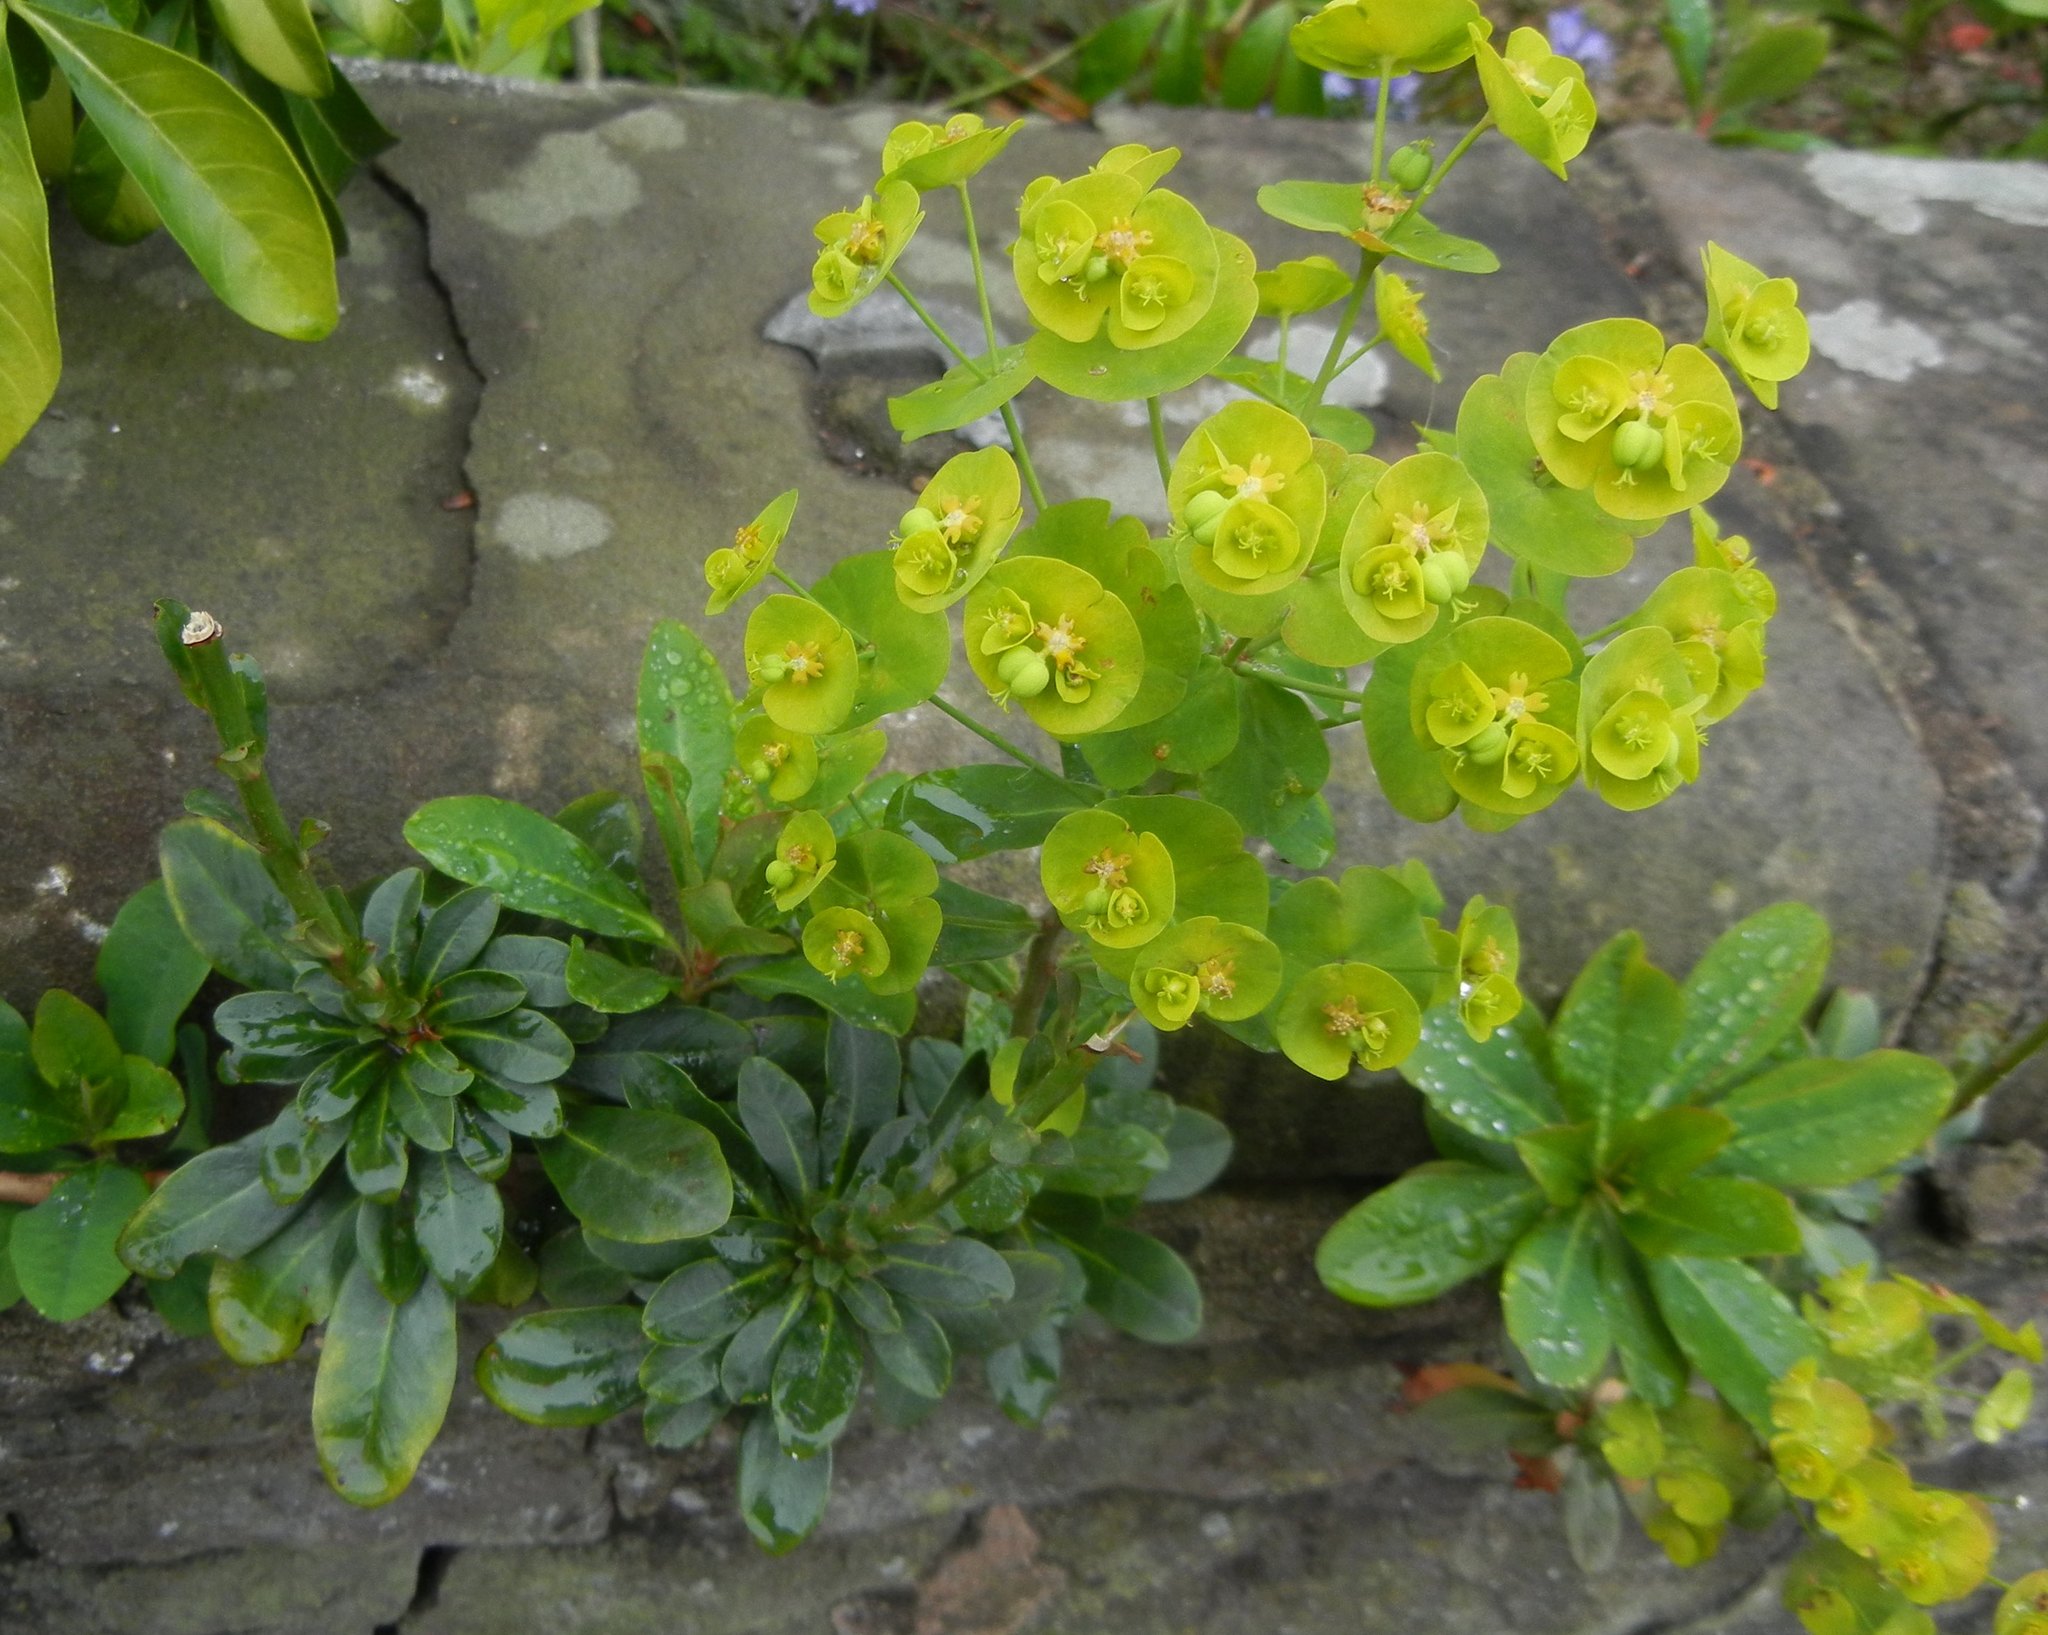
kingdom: Plantae
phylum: Tracheophyta
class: Magnoliopsida
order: Malpighiales
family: Euphorbiaceae
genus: Euphorbia
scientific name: Euphorbia amygdaloides
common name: Wood spurge
